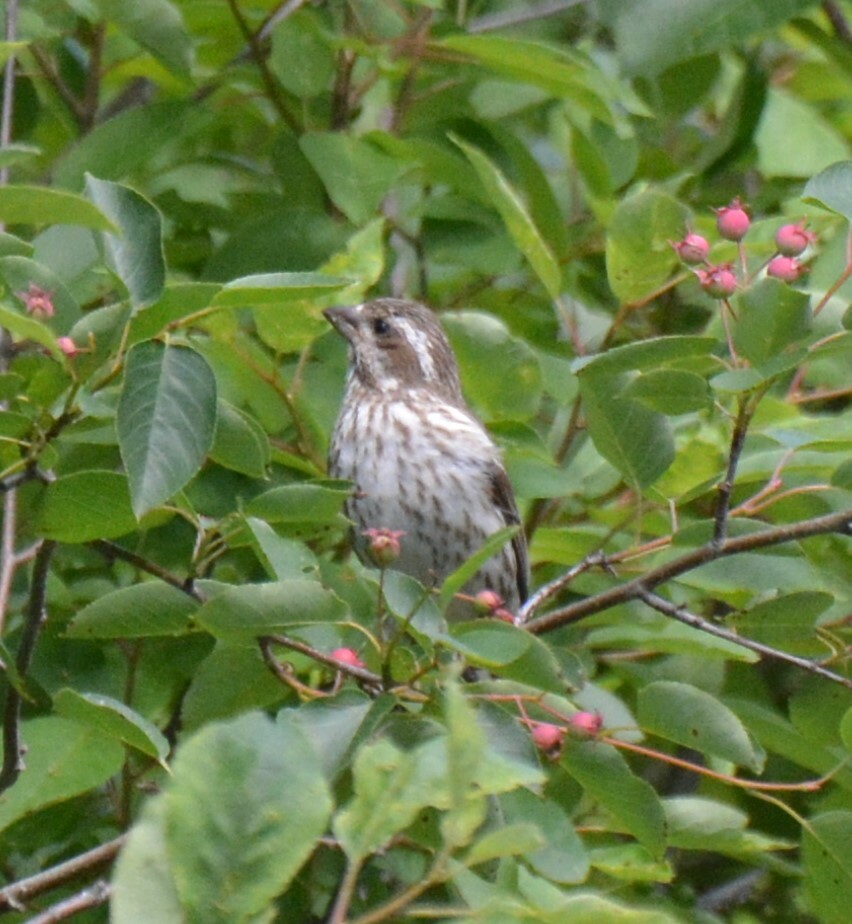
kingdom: Animalia
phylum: Chordata
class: Aves
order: Passeriformes
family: Fringillidae
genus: Haemorhous
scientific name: Haemorhous purpureus
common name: Purple finch
